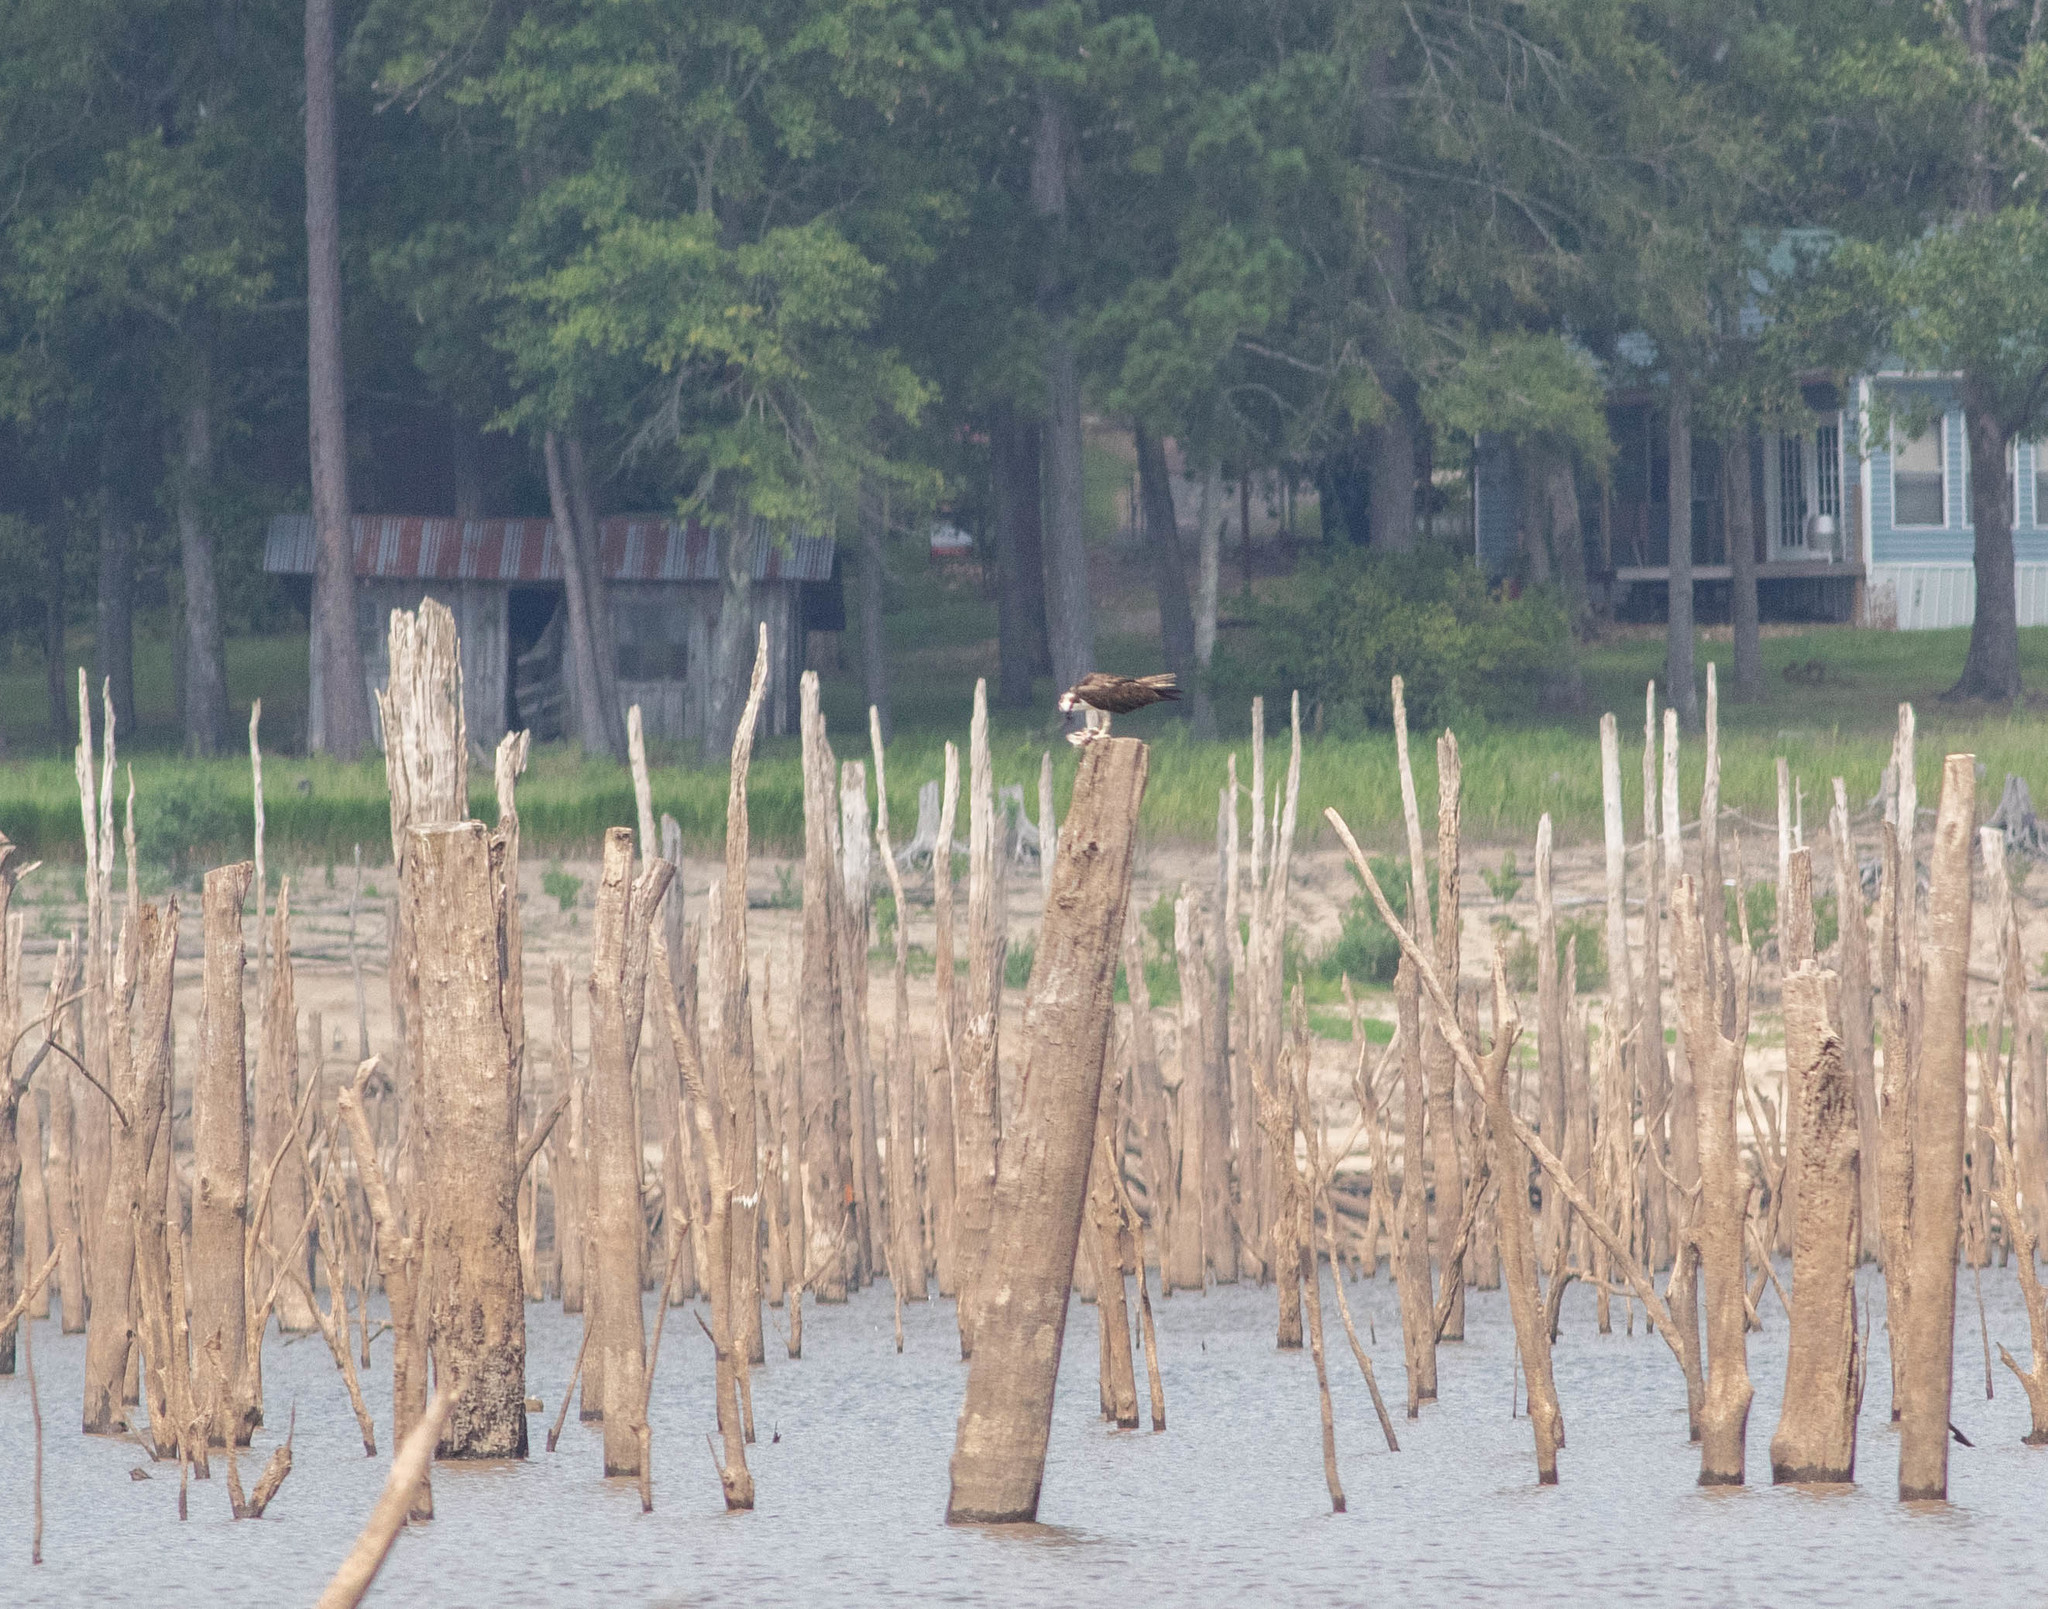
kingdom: Animalia
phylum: Chordata
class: Aves
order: Accipitriformes
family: Pandionidae
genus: Pandion
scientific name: Pandion haliaetus
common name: Osprey
